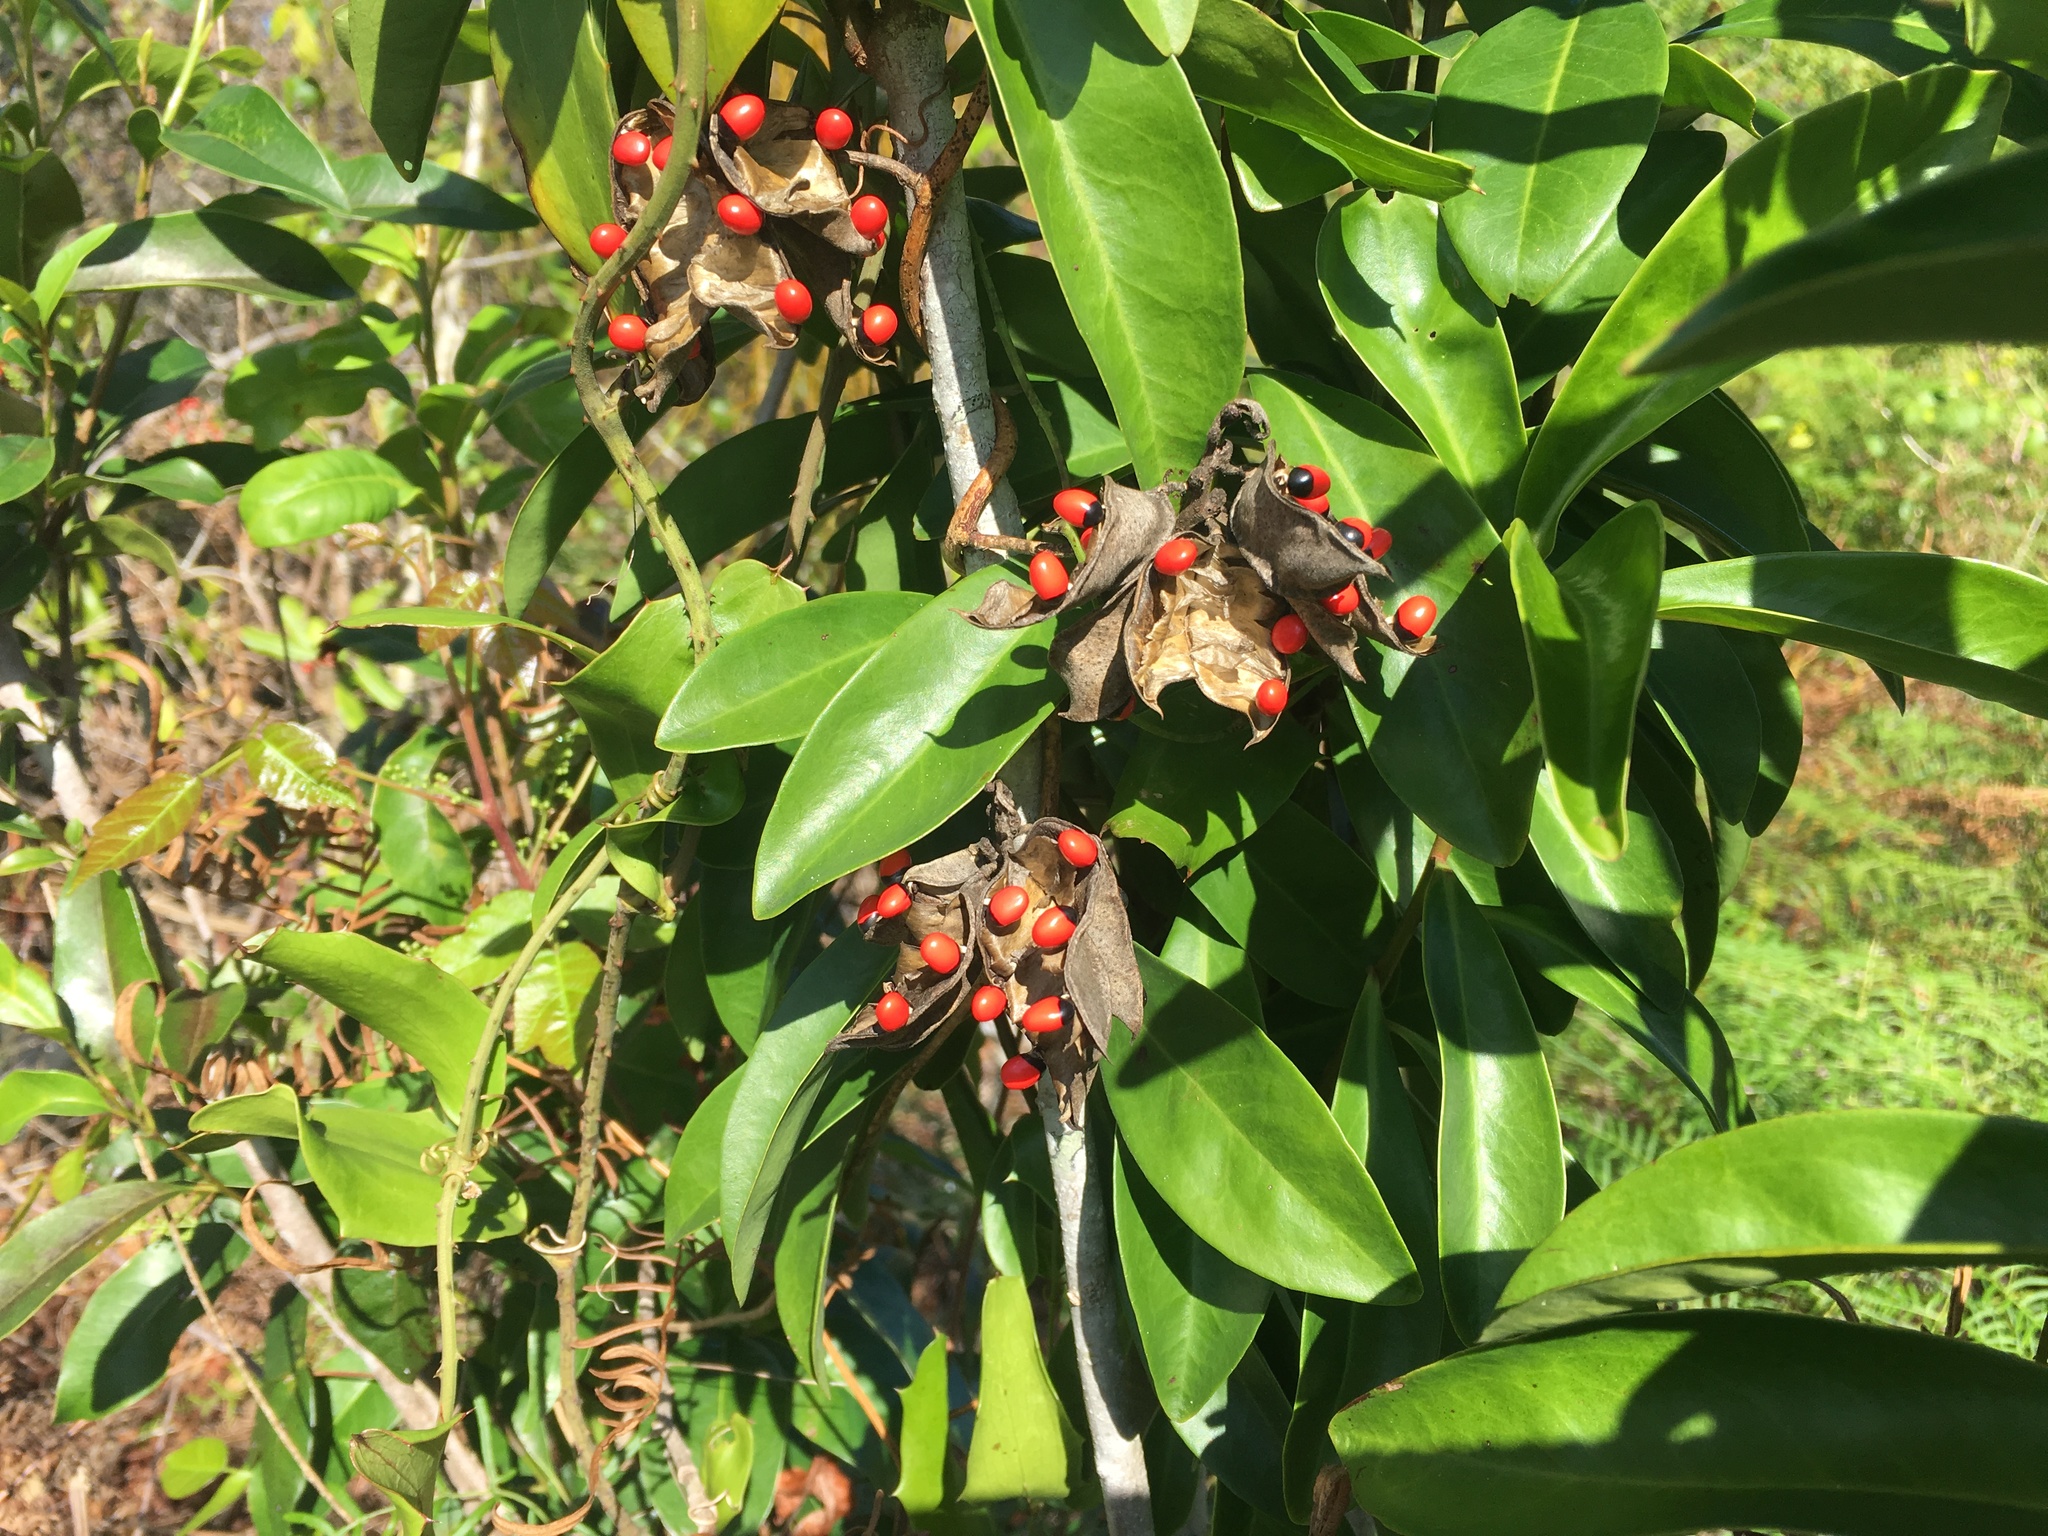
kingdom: Plantae
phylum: Tracheophyta
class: Magnoliopsida
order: Fabales
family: Fabaceae
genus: Abrus
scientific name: Abrus precatorius
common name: Rosarypea
